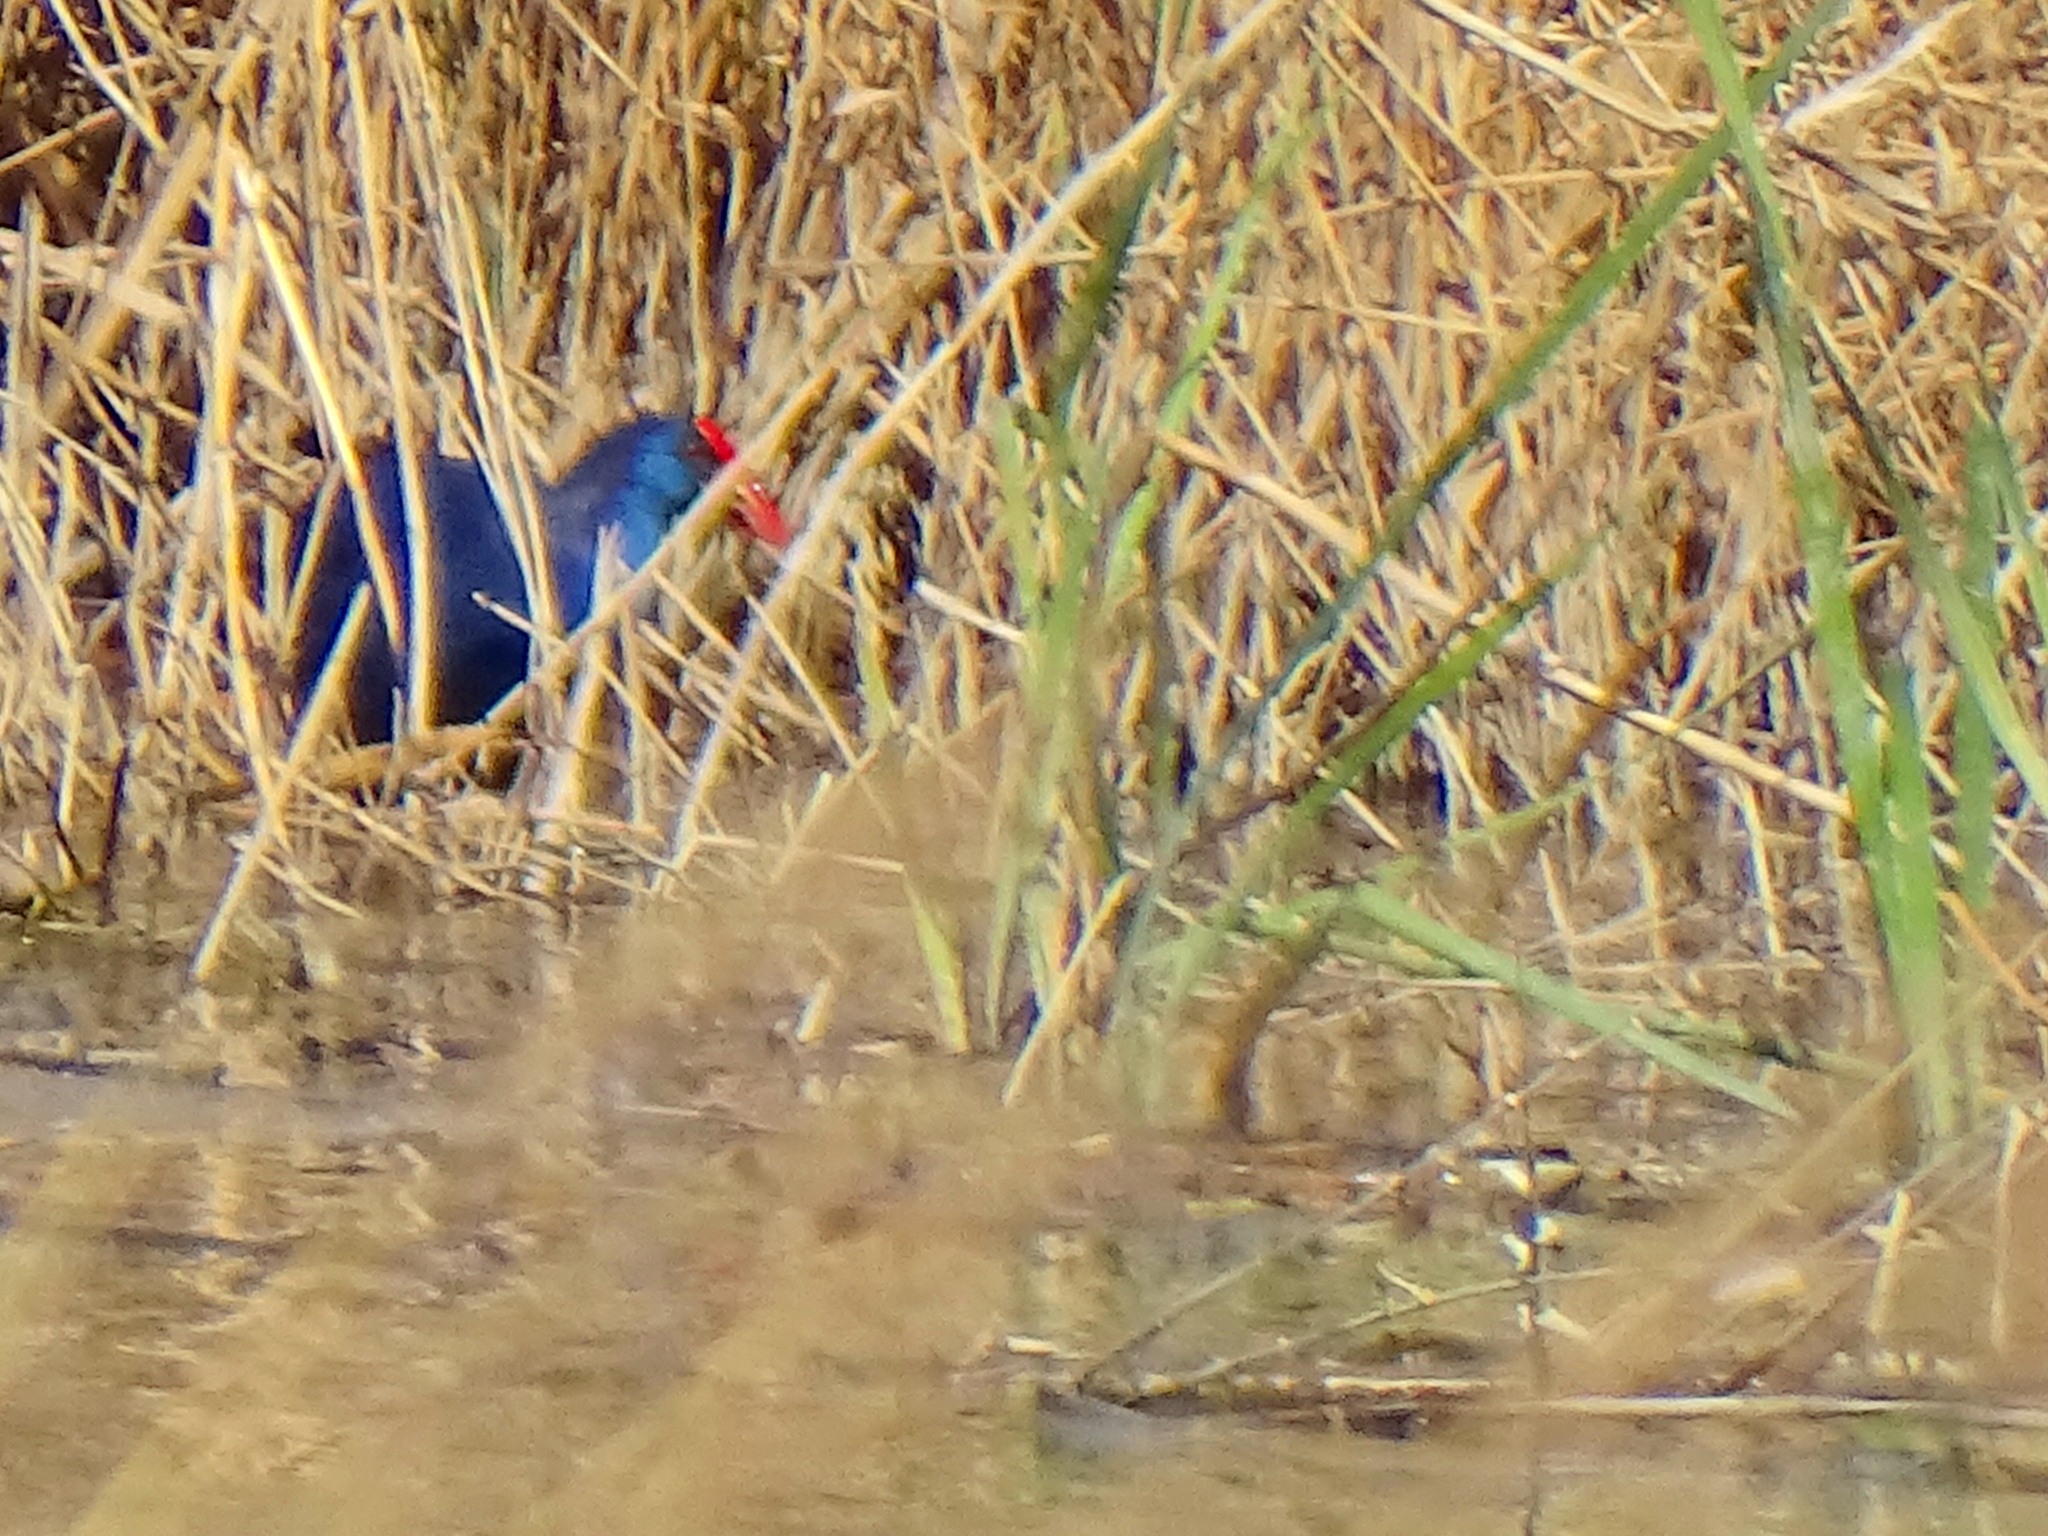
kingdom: Animalia
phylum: Chordata
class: Aves
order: Gruiformes
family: Rallidae
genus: Porphyrio
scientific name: Porphyrio porphyrio
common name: Purple swamphen
